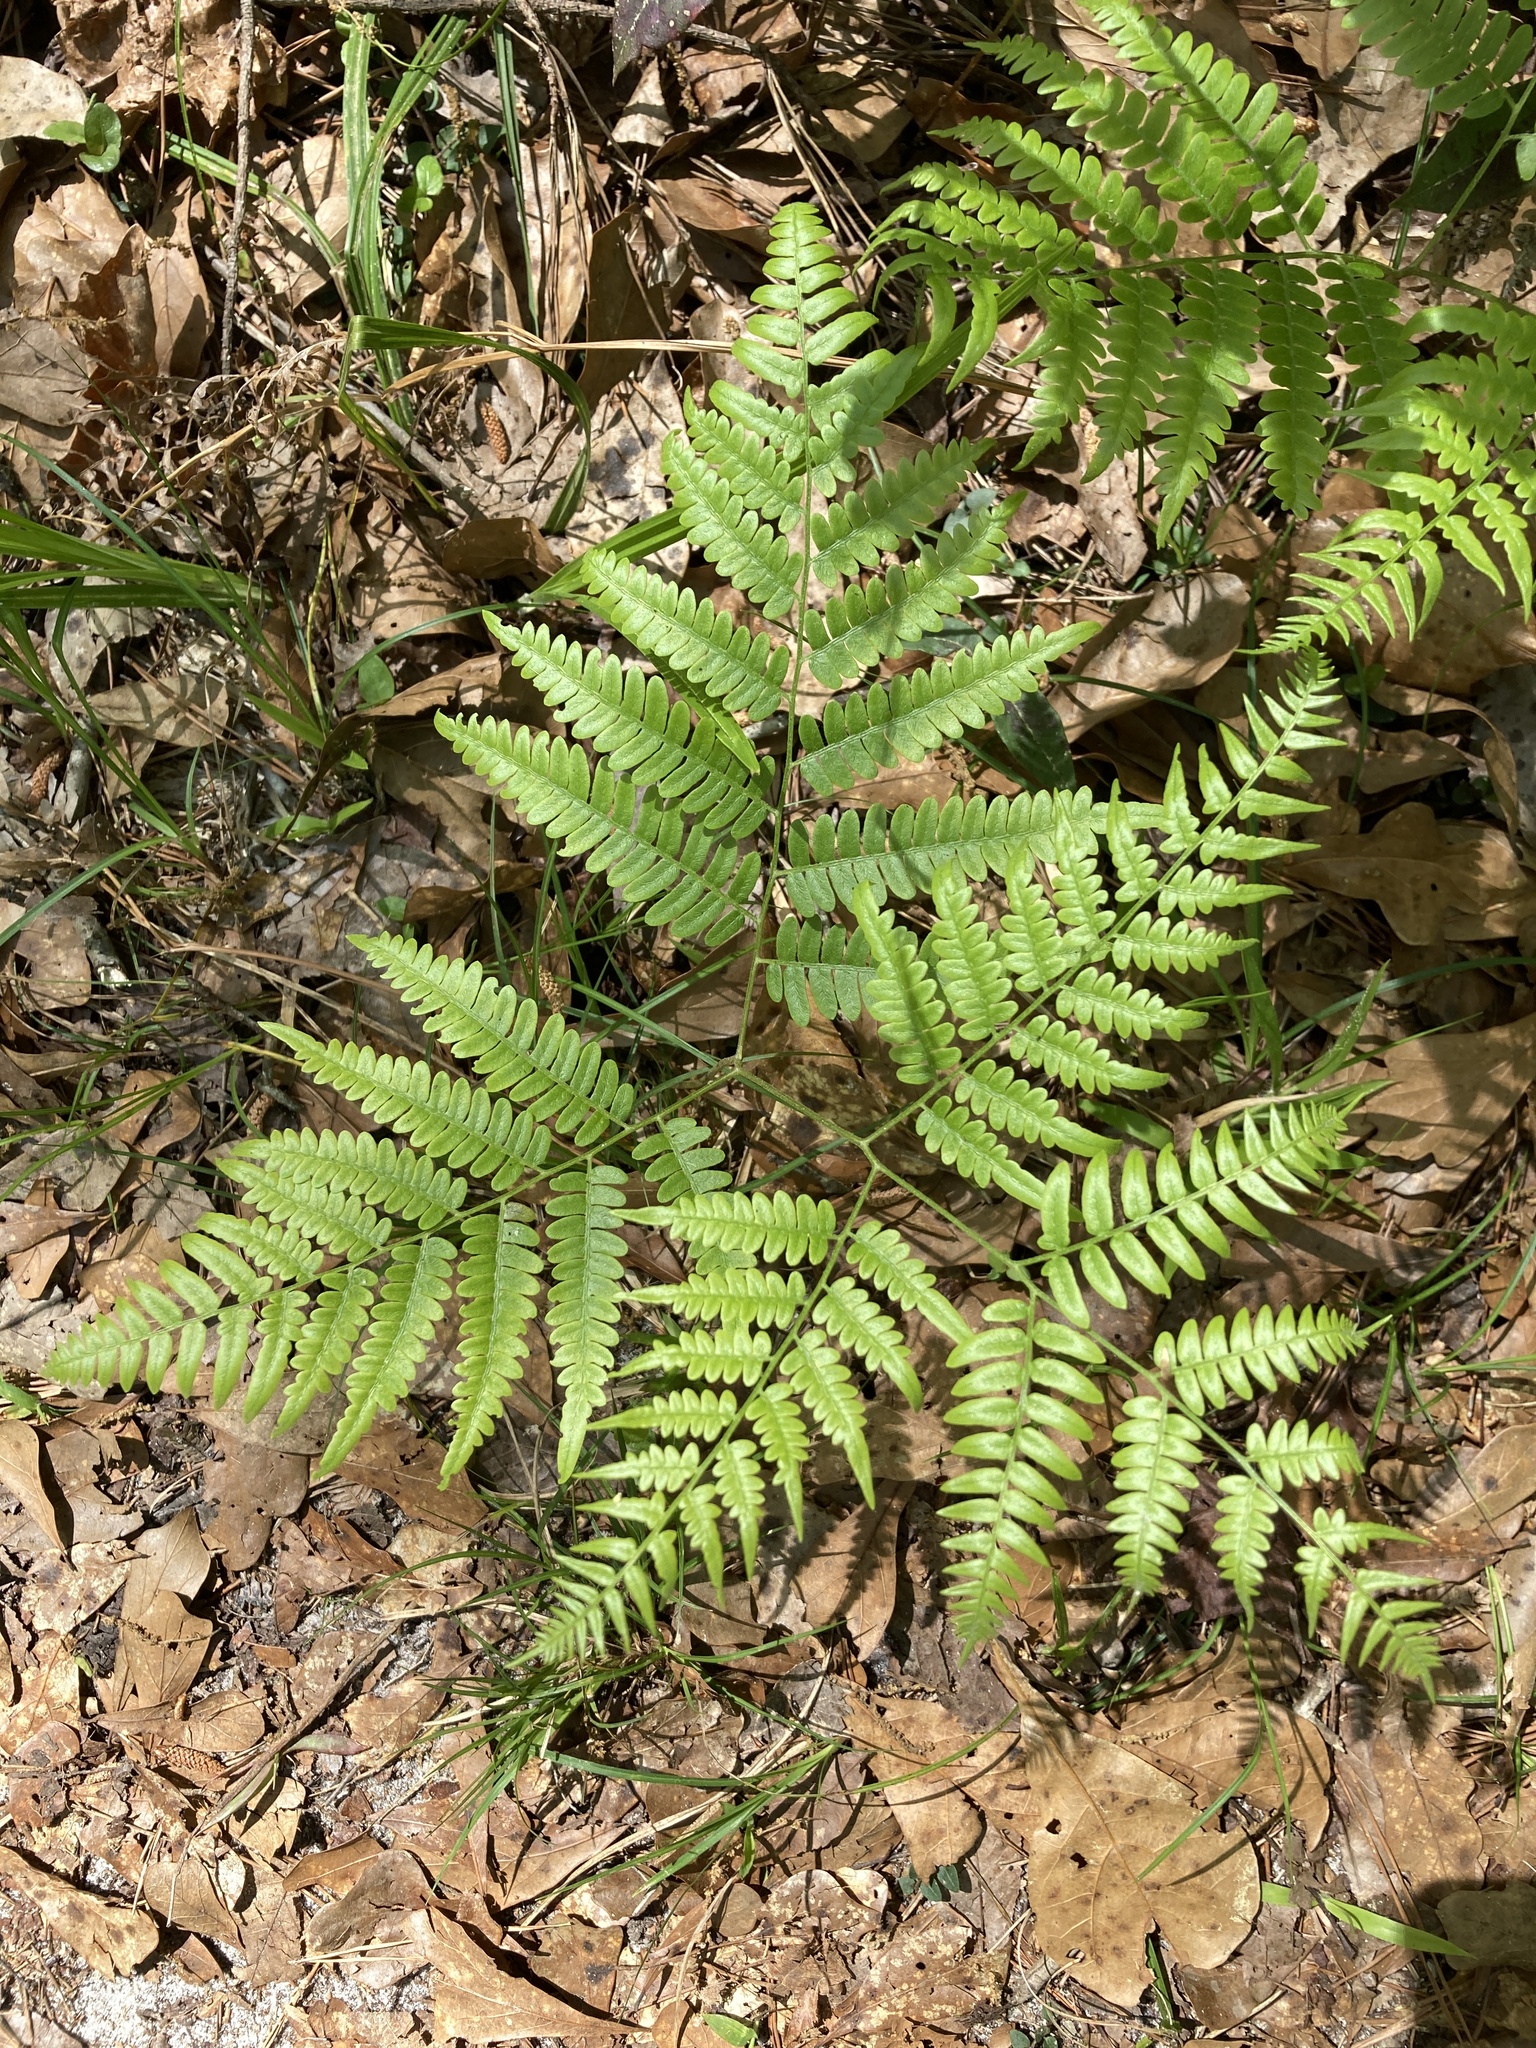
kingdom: Plantae
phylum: Tracheophyta
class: Polypodiopsida
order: Polypodiales
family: Dennstaedtiaceae
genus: Pteridium
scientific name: Pteridium
